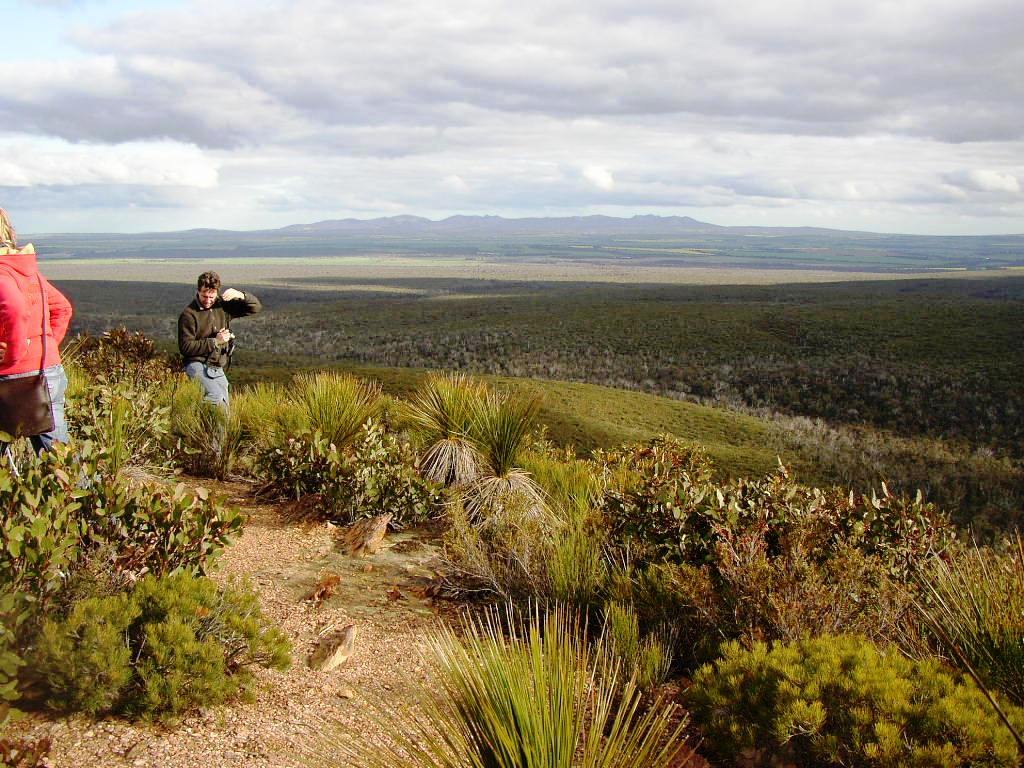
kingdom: Plantae
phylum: Tracheophyta
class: Liliopsida
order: Asparagales
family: Asphodelaceae
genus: Xanthorrhoea
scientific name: Xanthorrhoea platyphylla
